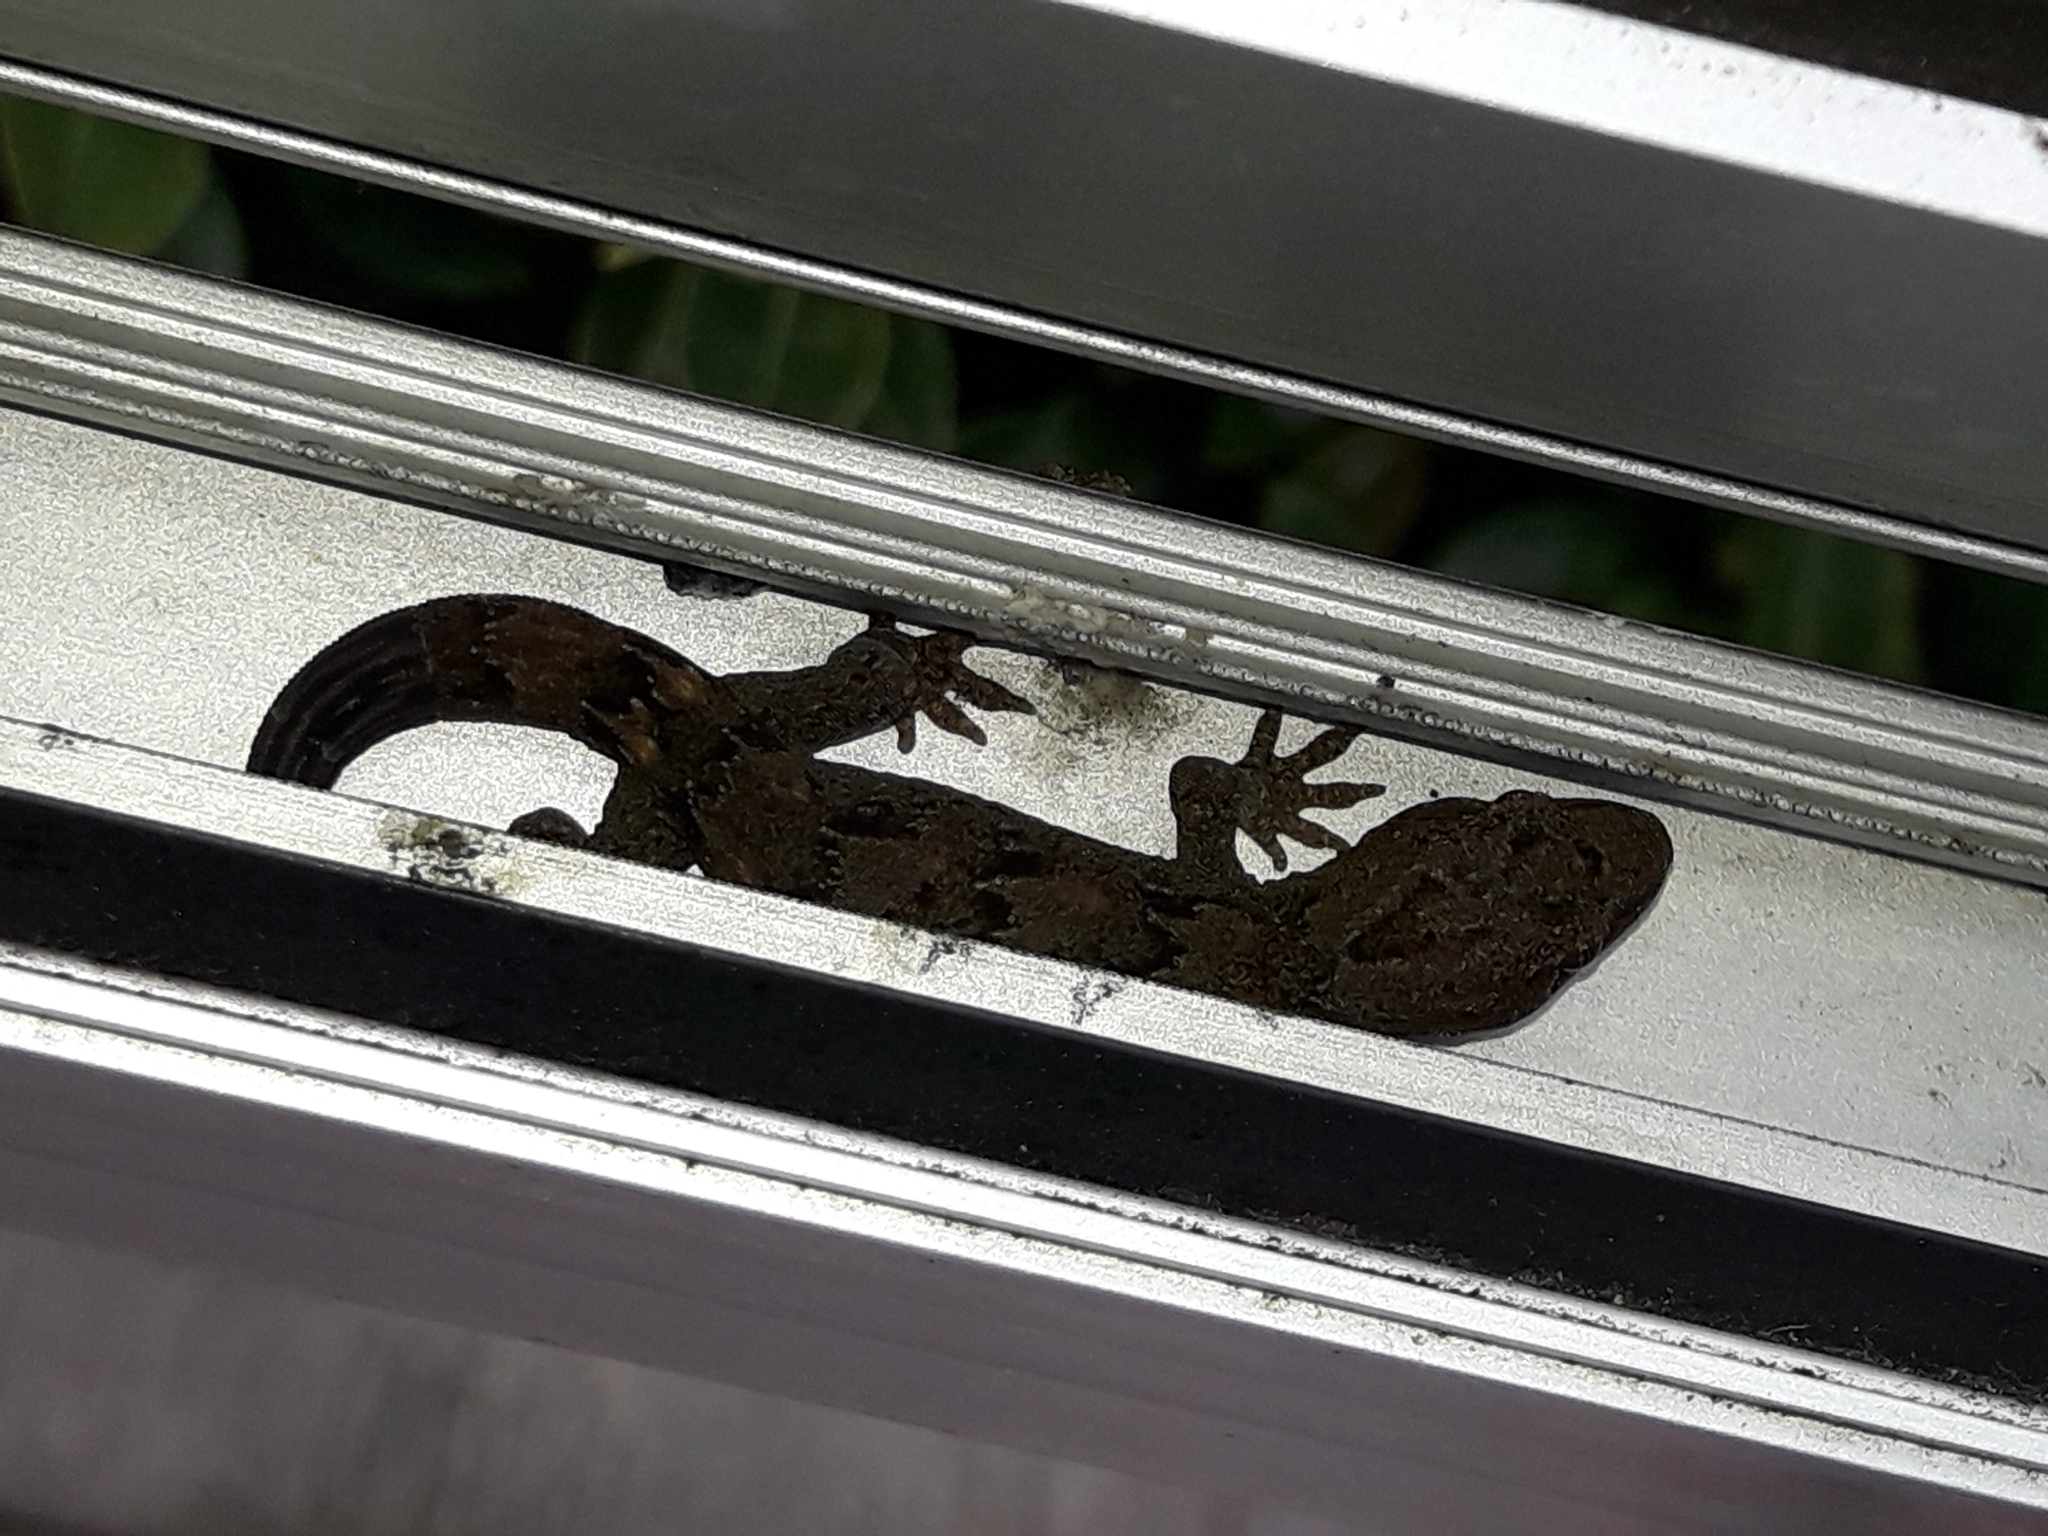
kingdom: Animalia
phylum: Chordata
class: Squamata
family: Diplodactylidae
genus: Woodworthia
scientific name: Woodworthia maculata
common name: Raukawa gecko
